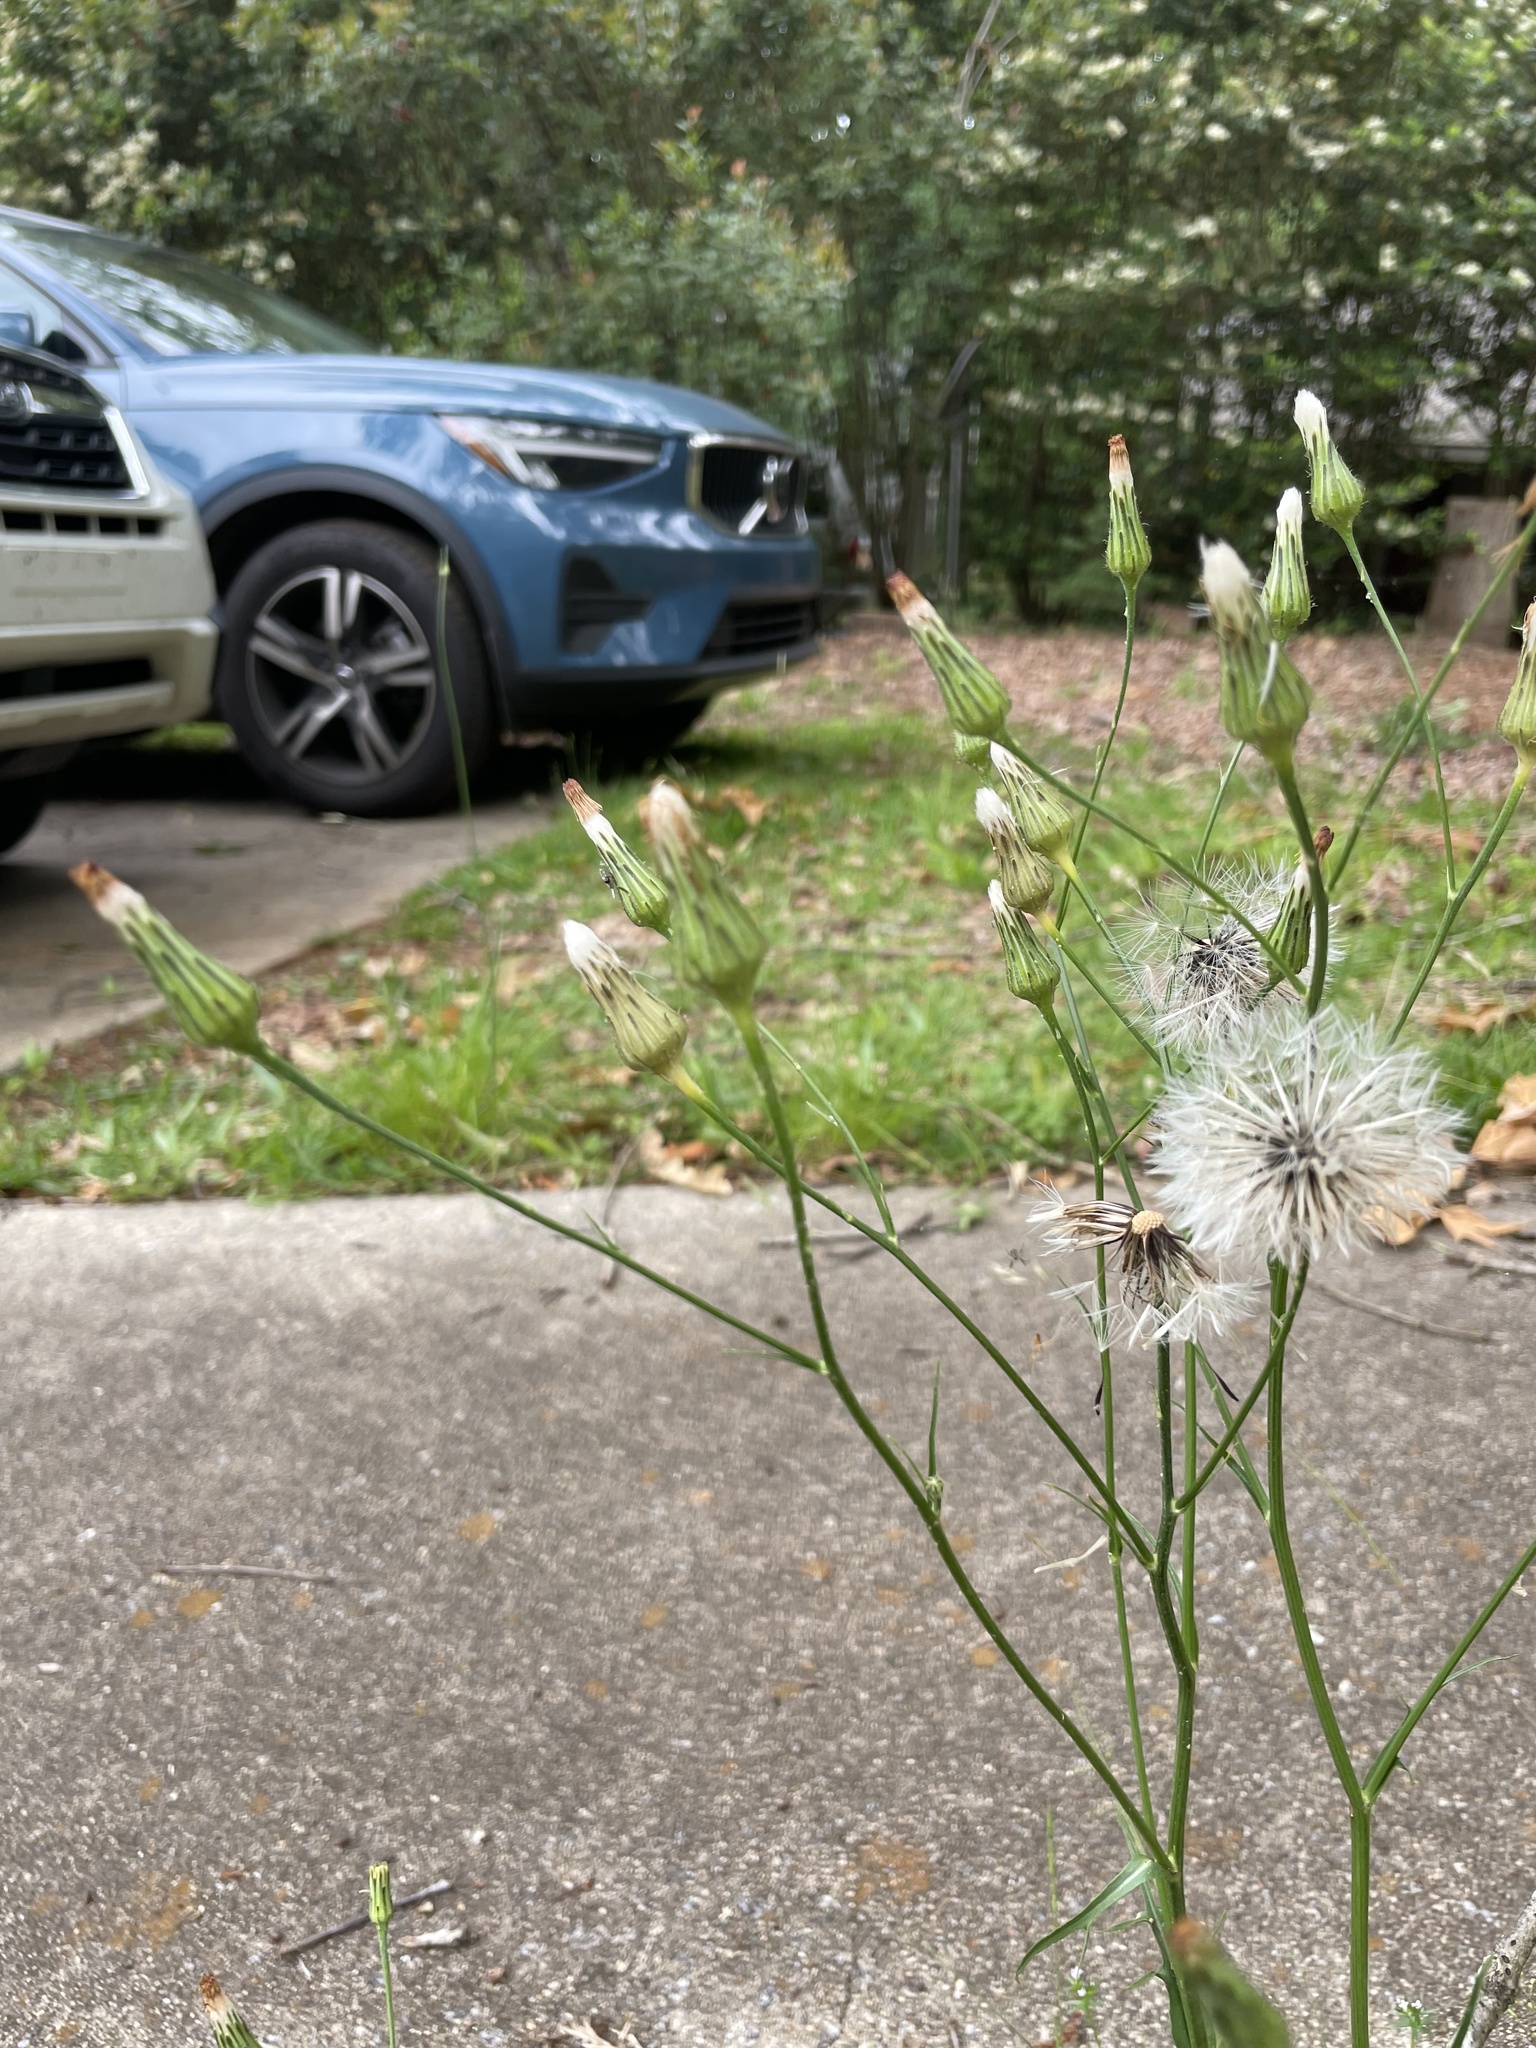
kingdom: Plantae
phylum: Tracheophyta
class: Magnoliopsida
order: Asterales
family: Asteraceae
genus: Hypochaeris
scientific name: Hypochaeris chillensis
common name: Brazilian cat's ear
